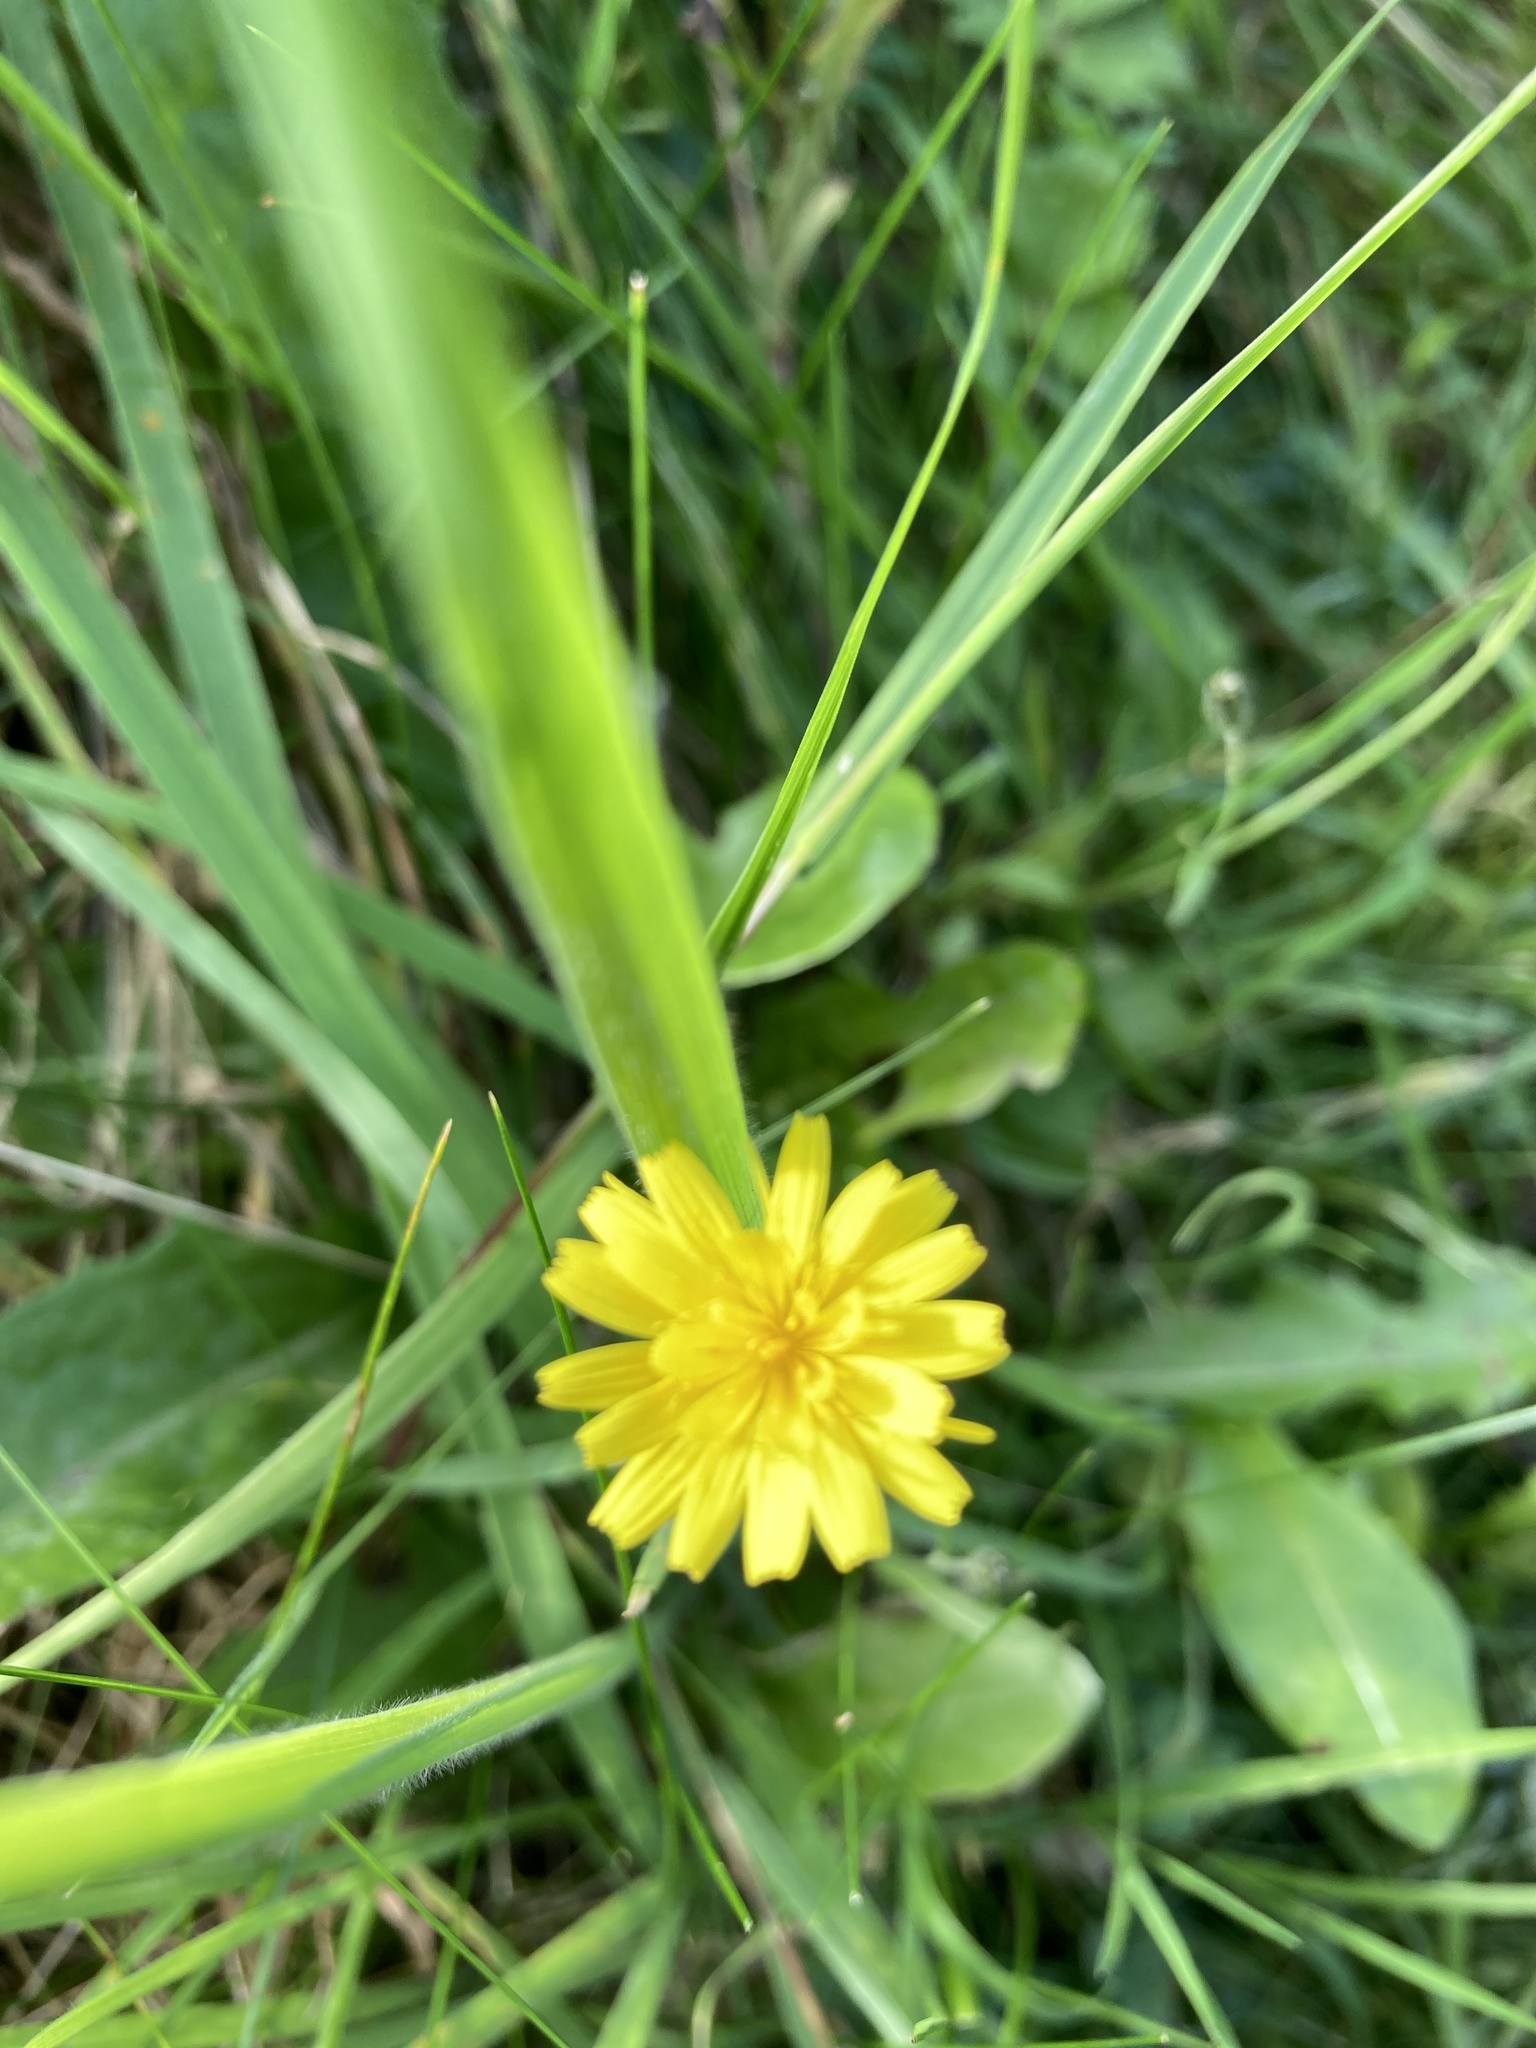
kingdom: Plantae
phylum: Tracheophyta
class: Magnoliopsida
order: Asterales
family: Asteraceae
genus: Hypochaeris
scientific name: Hypochaeris radicata
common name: Flatweed
